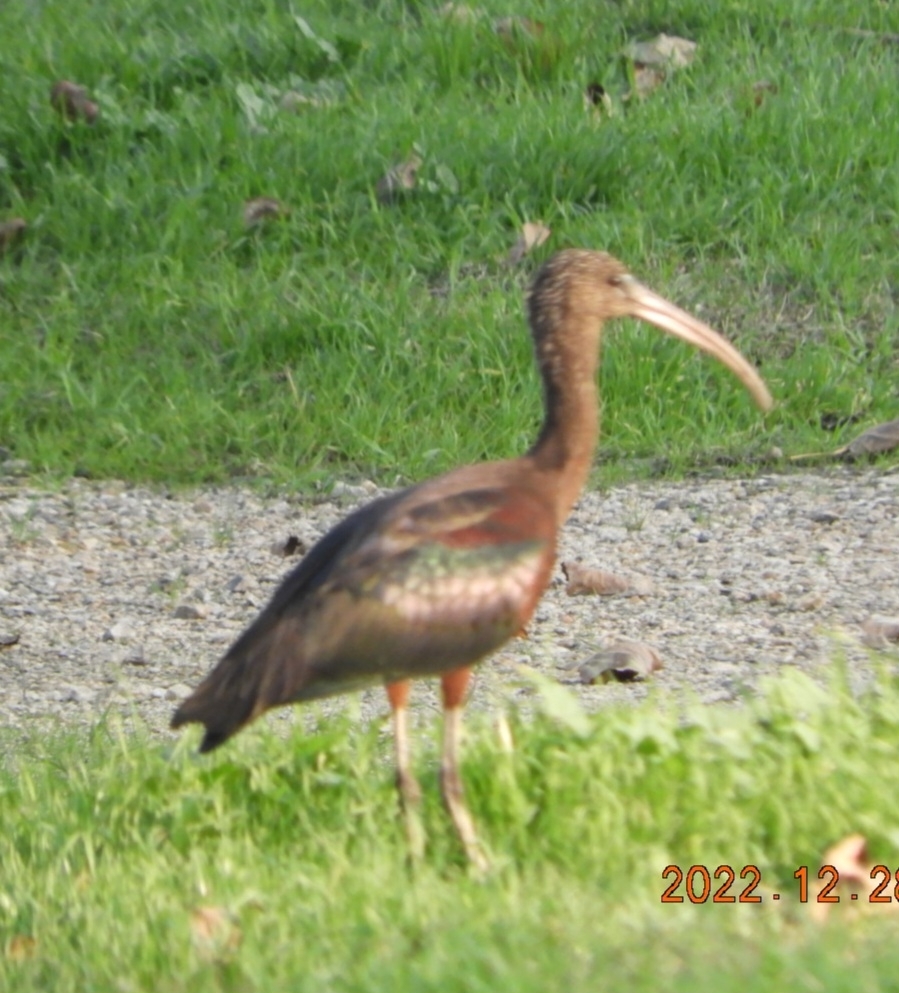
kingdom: Animalia
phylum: Chordata
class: Aves
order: Pelecaniformes
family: Threskiornithidae
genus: Plegadis
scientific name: Plegadis falcinellus
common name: Glossy ibis
